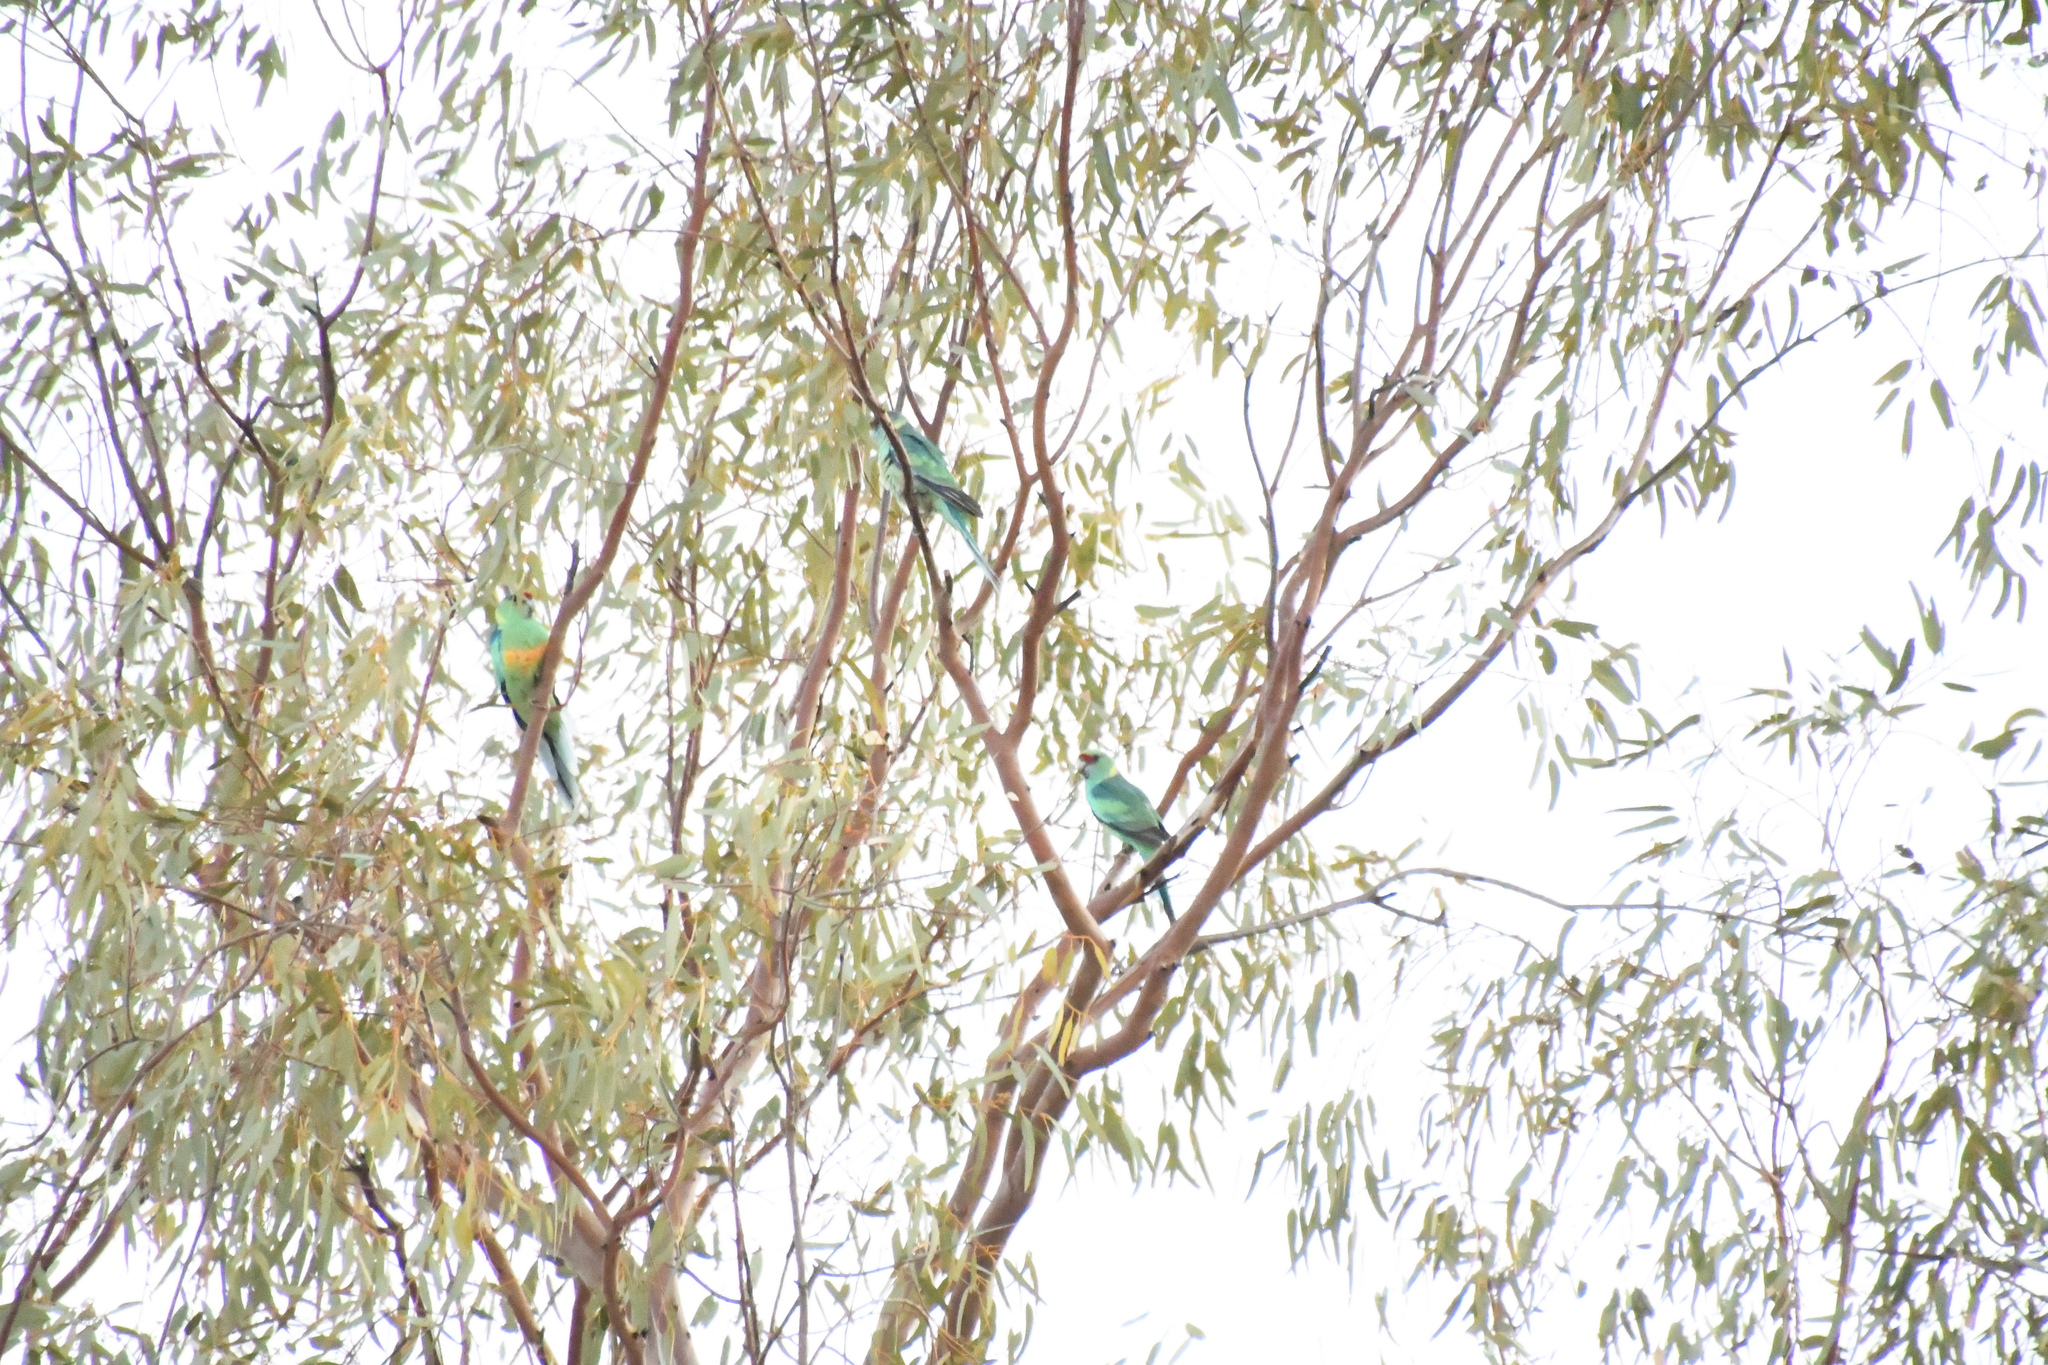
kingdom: Animalia
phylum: Chordata
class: Aves
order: Psittaciformes
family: Psittacidae
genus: Barnardius
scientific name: Barnardius zonarius
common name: Australian ringneck
